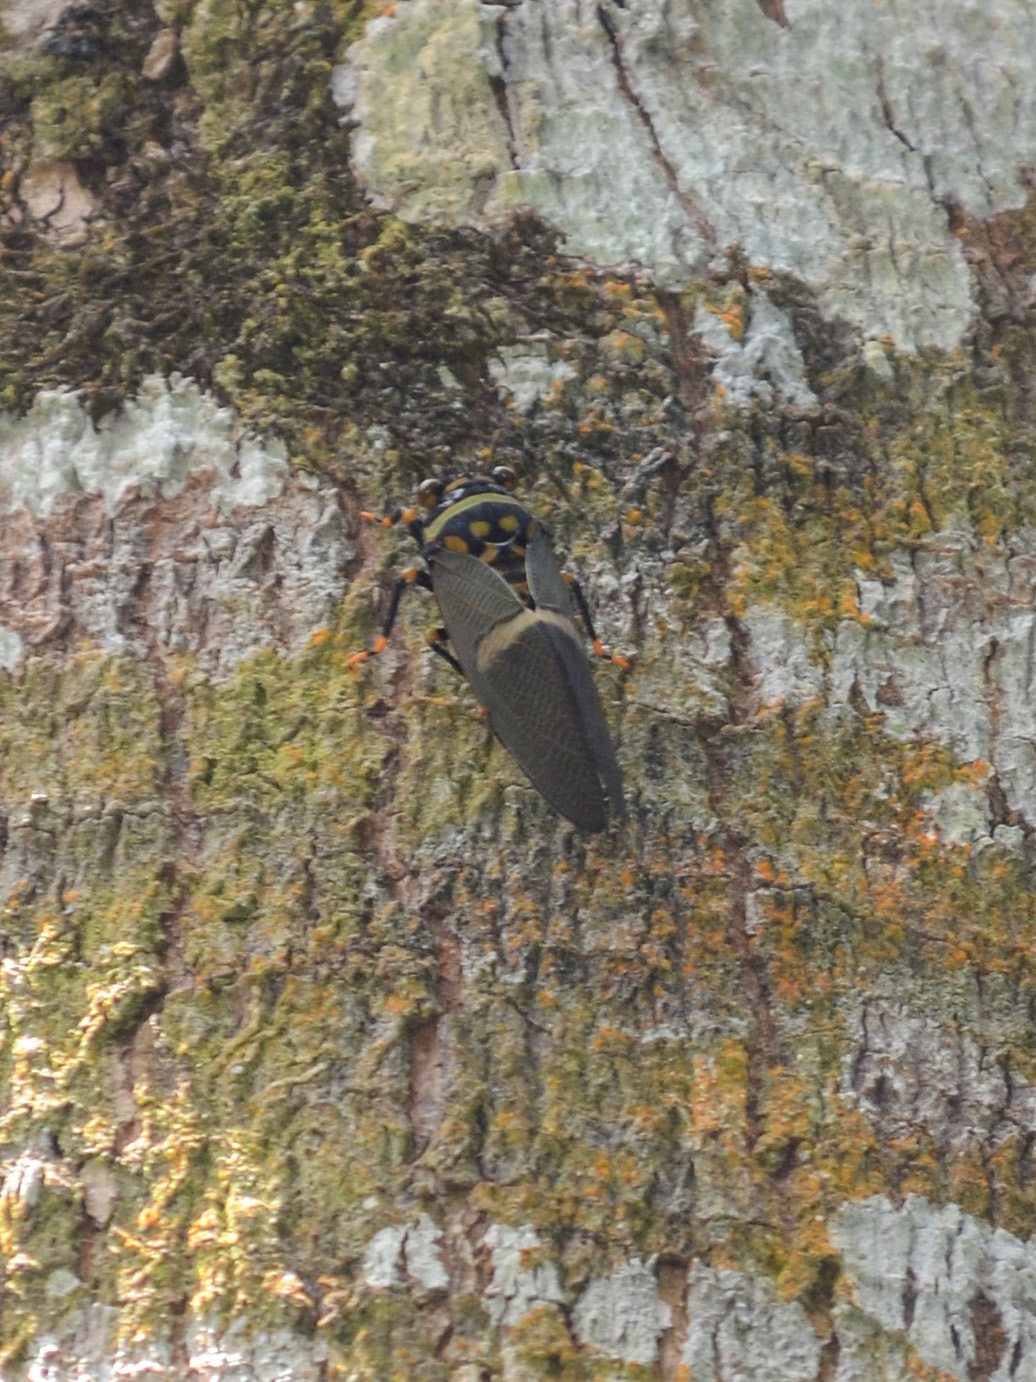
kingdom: Animalia
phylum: Arthropoda
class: Insecta
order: Hemiptera
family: Cicadidae
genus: Tosena
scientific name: Tosena depicta
